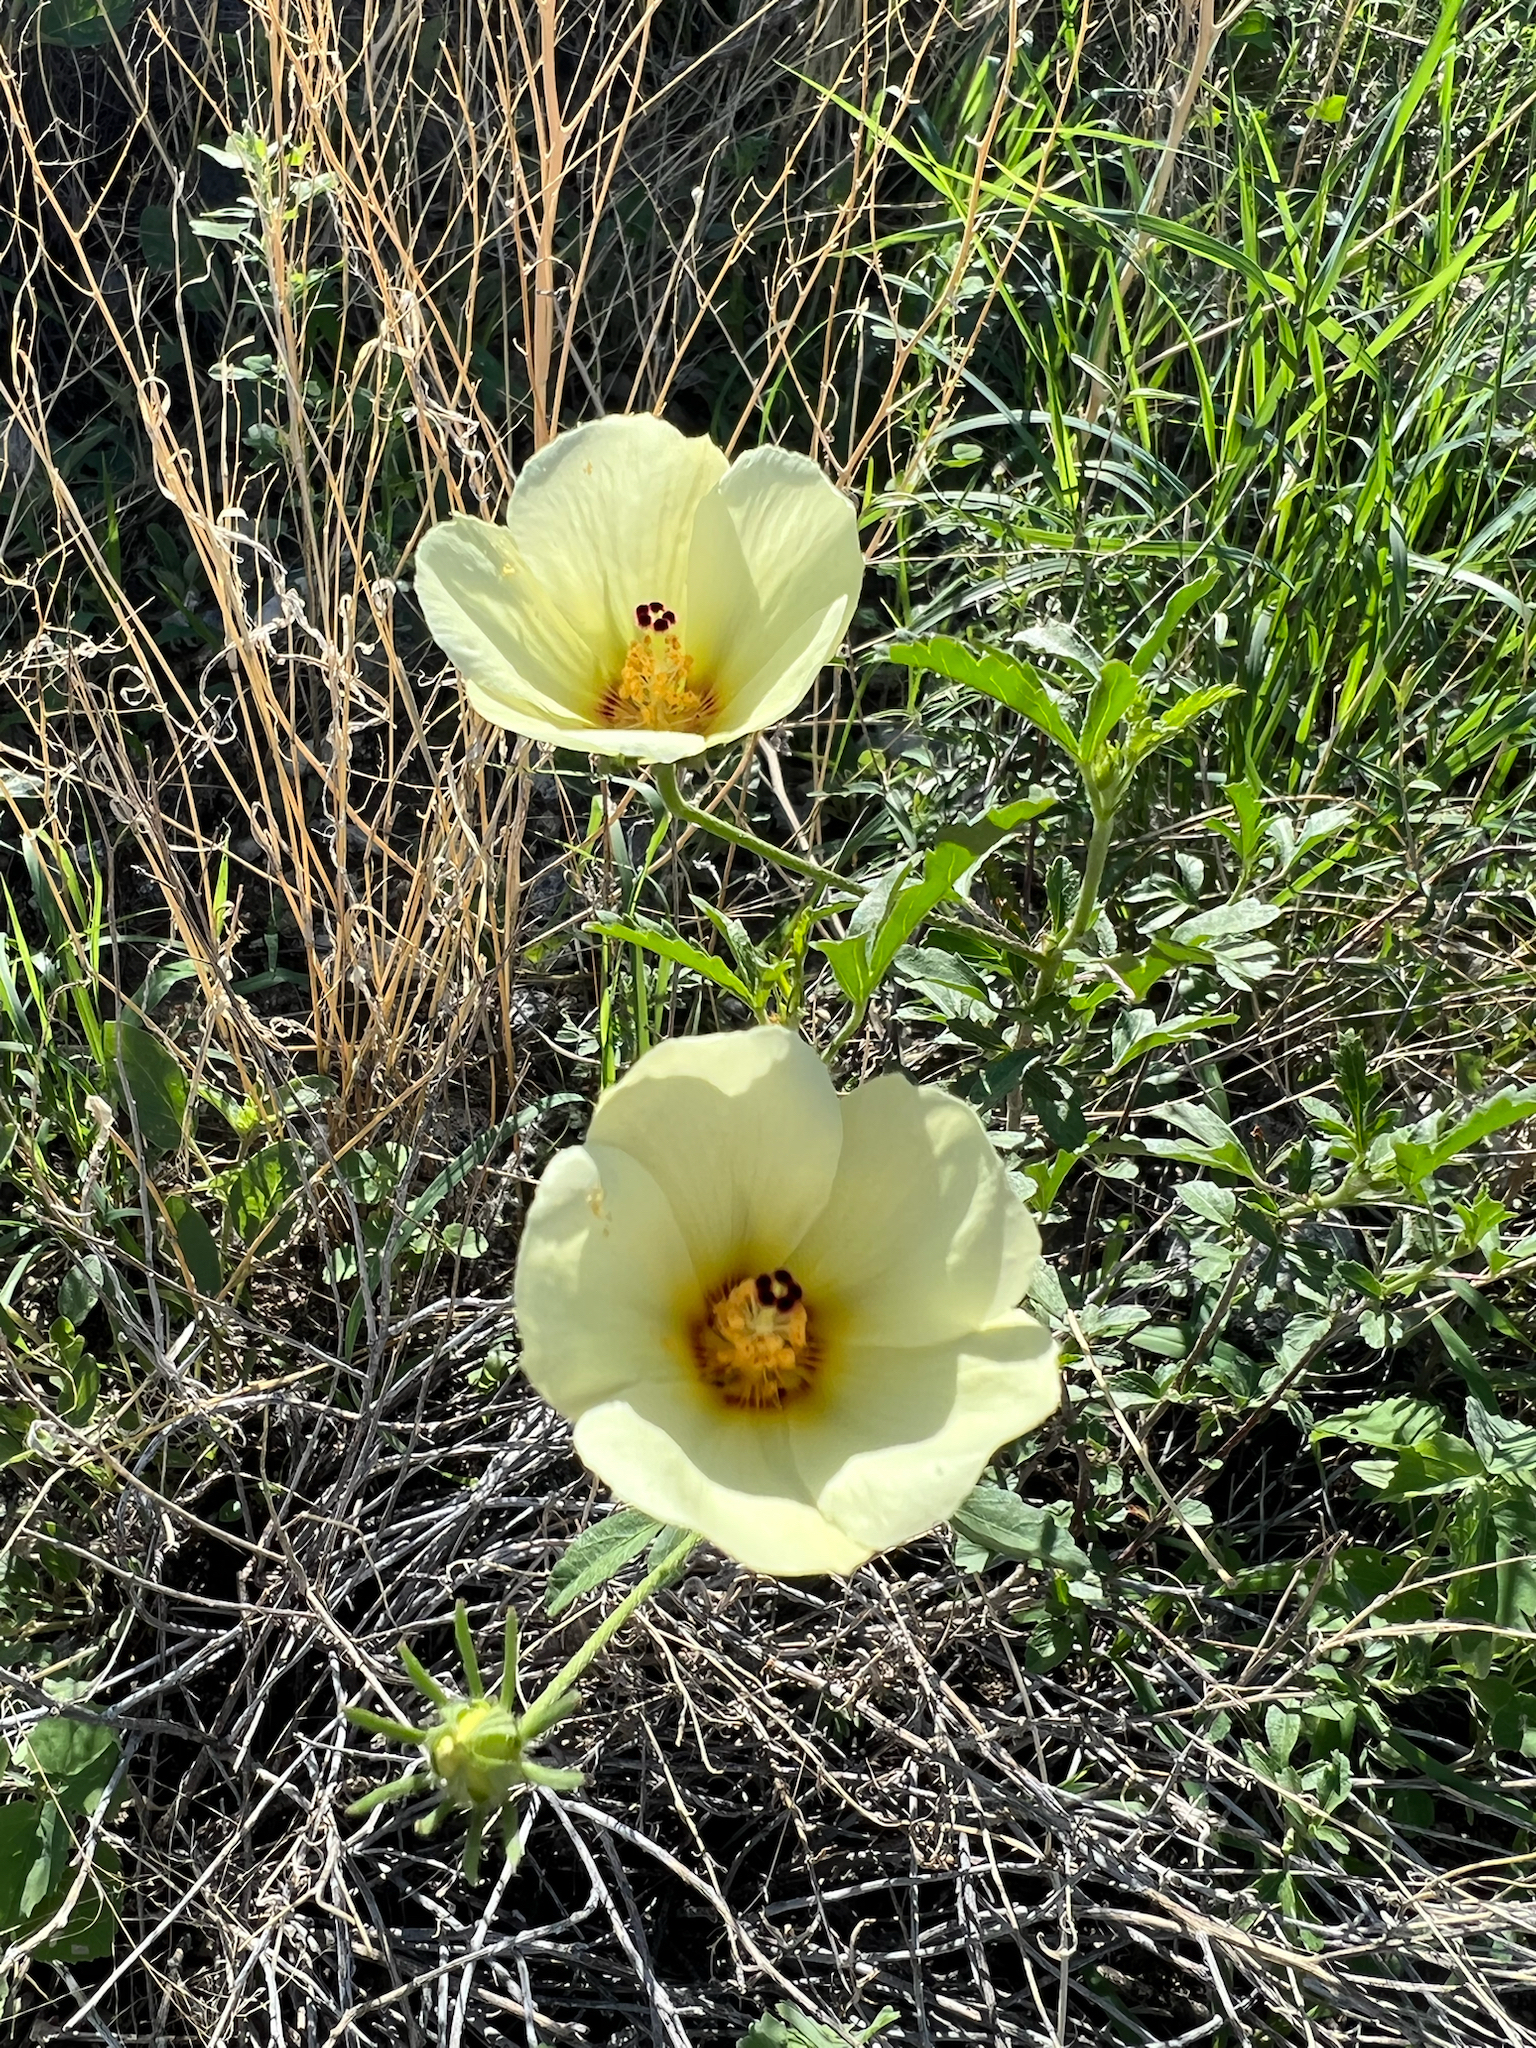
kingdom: Plantae
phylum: Tracheophyta
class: Magnoliopsida
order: Malvales
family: Malvaceae
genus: Hibiscus
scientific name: Hibiscus coulteri
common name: Desert rose-mallow
